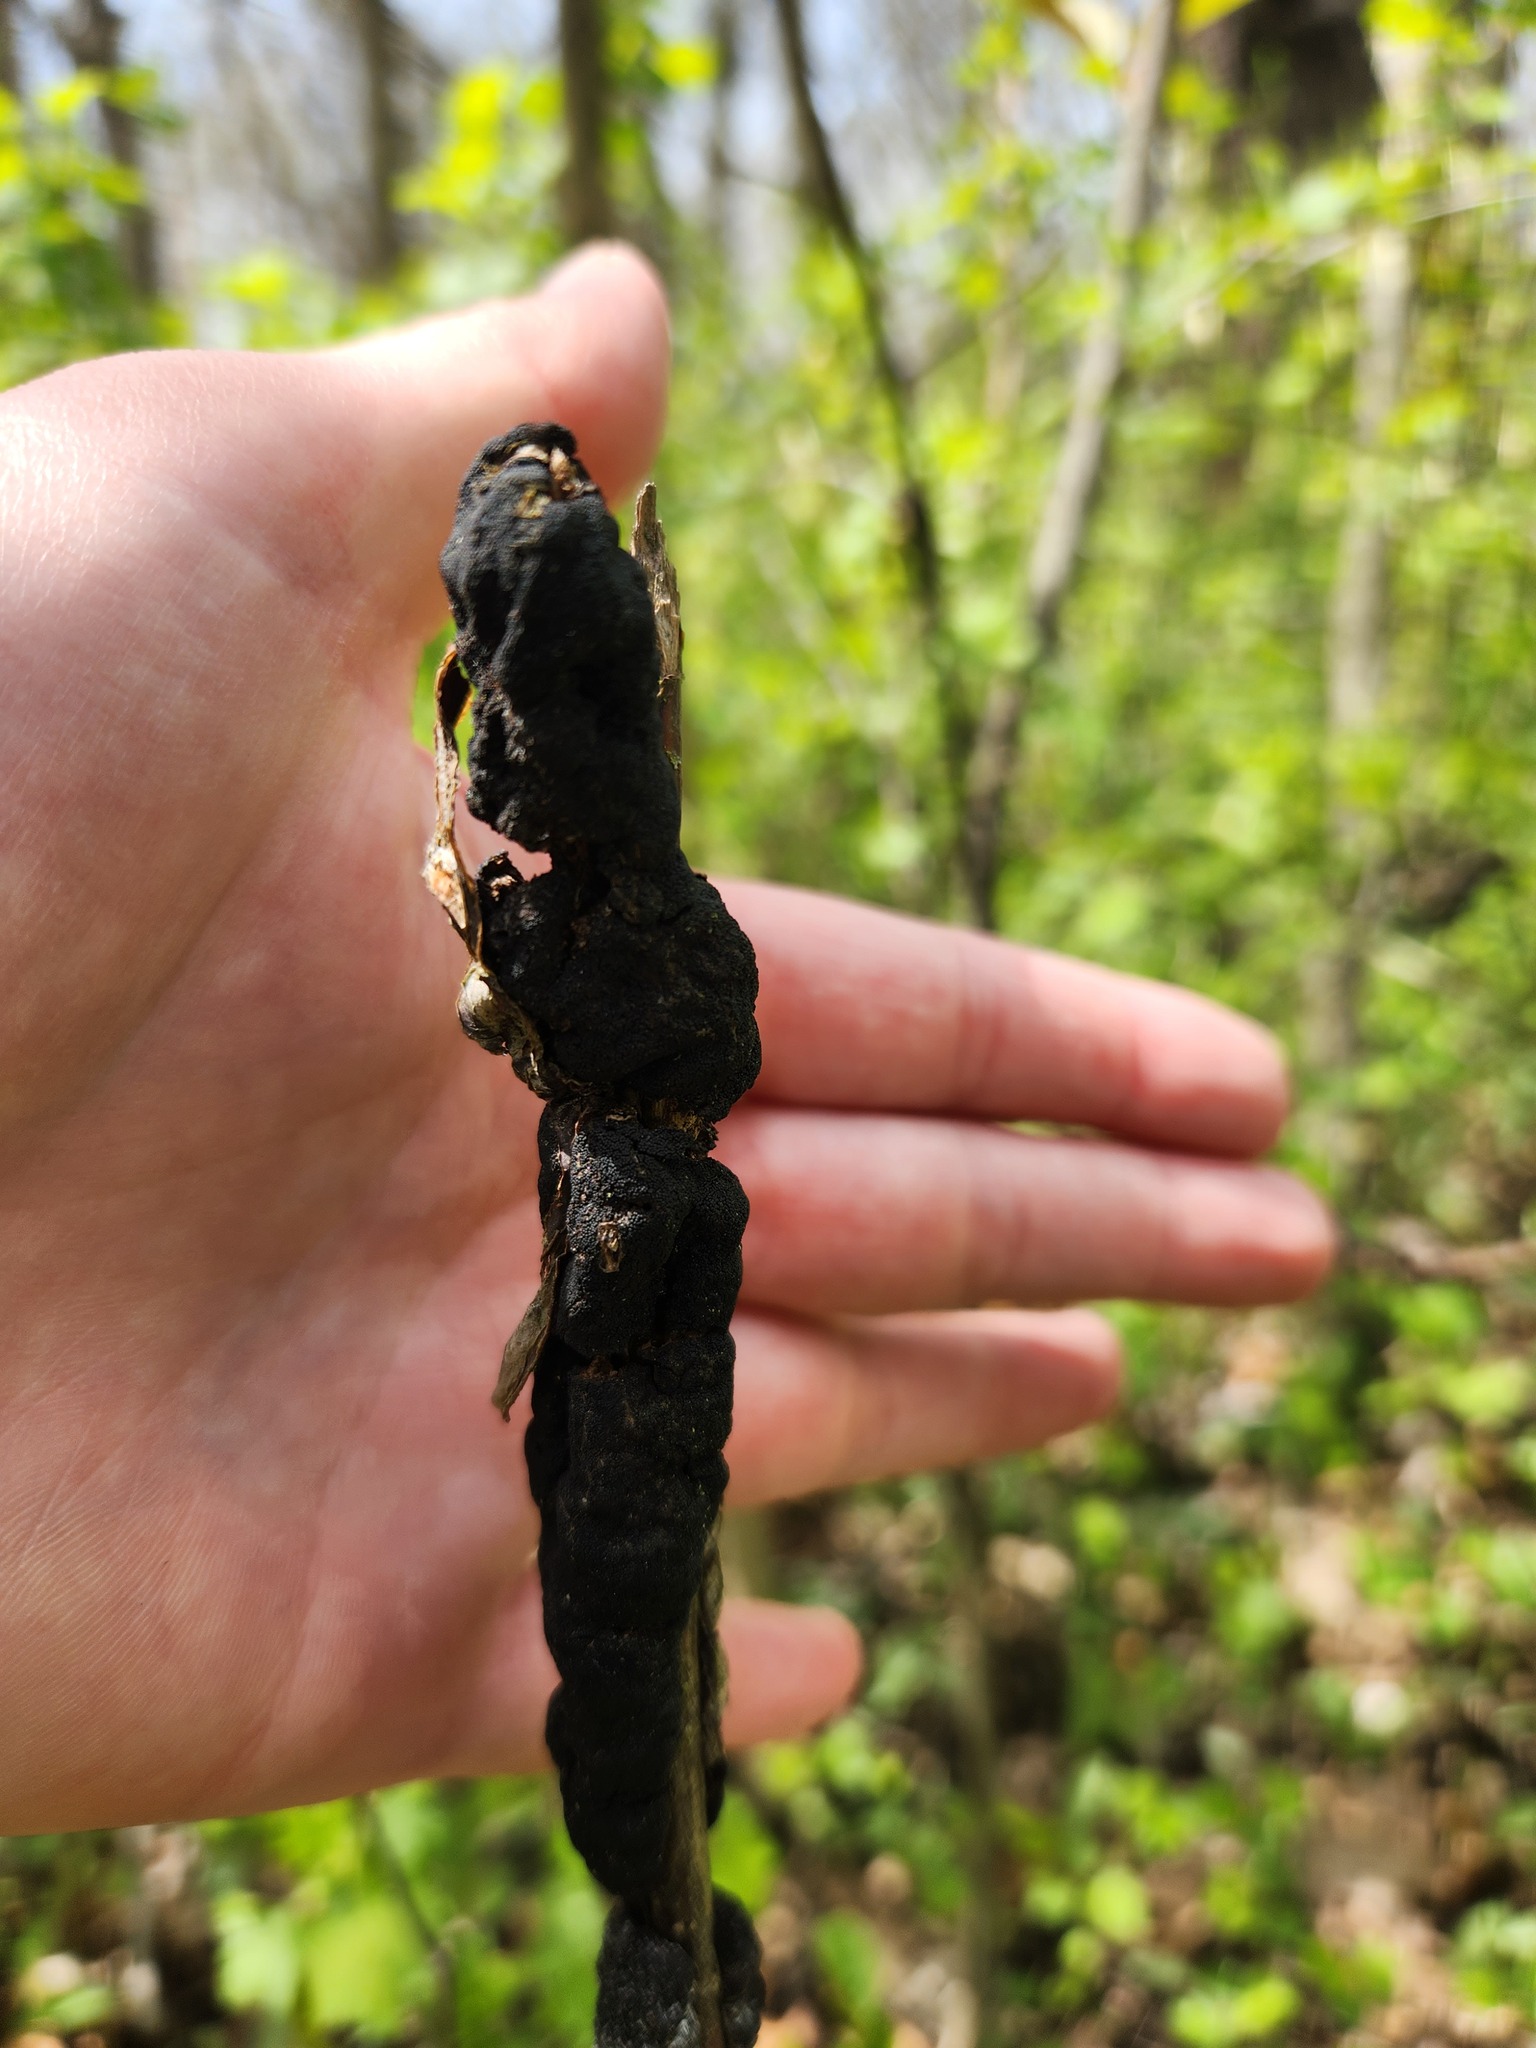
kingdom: Fungi
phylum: Ascomycota
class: Dothideomycetes
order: Venturiales
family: Venturiaceae
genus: Apiosporina
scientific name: Apiosporina morbosa
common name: Black knot
